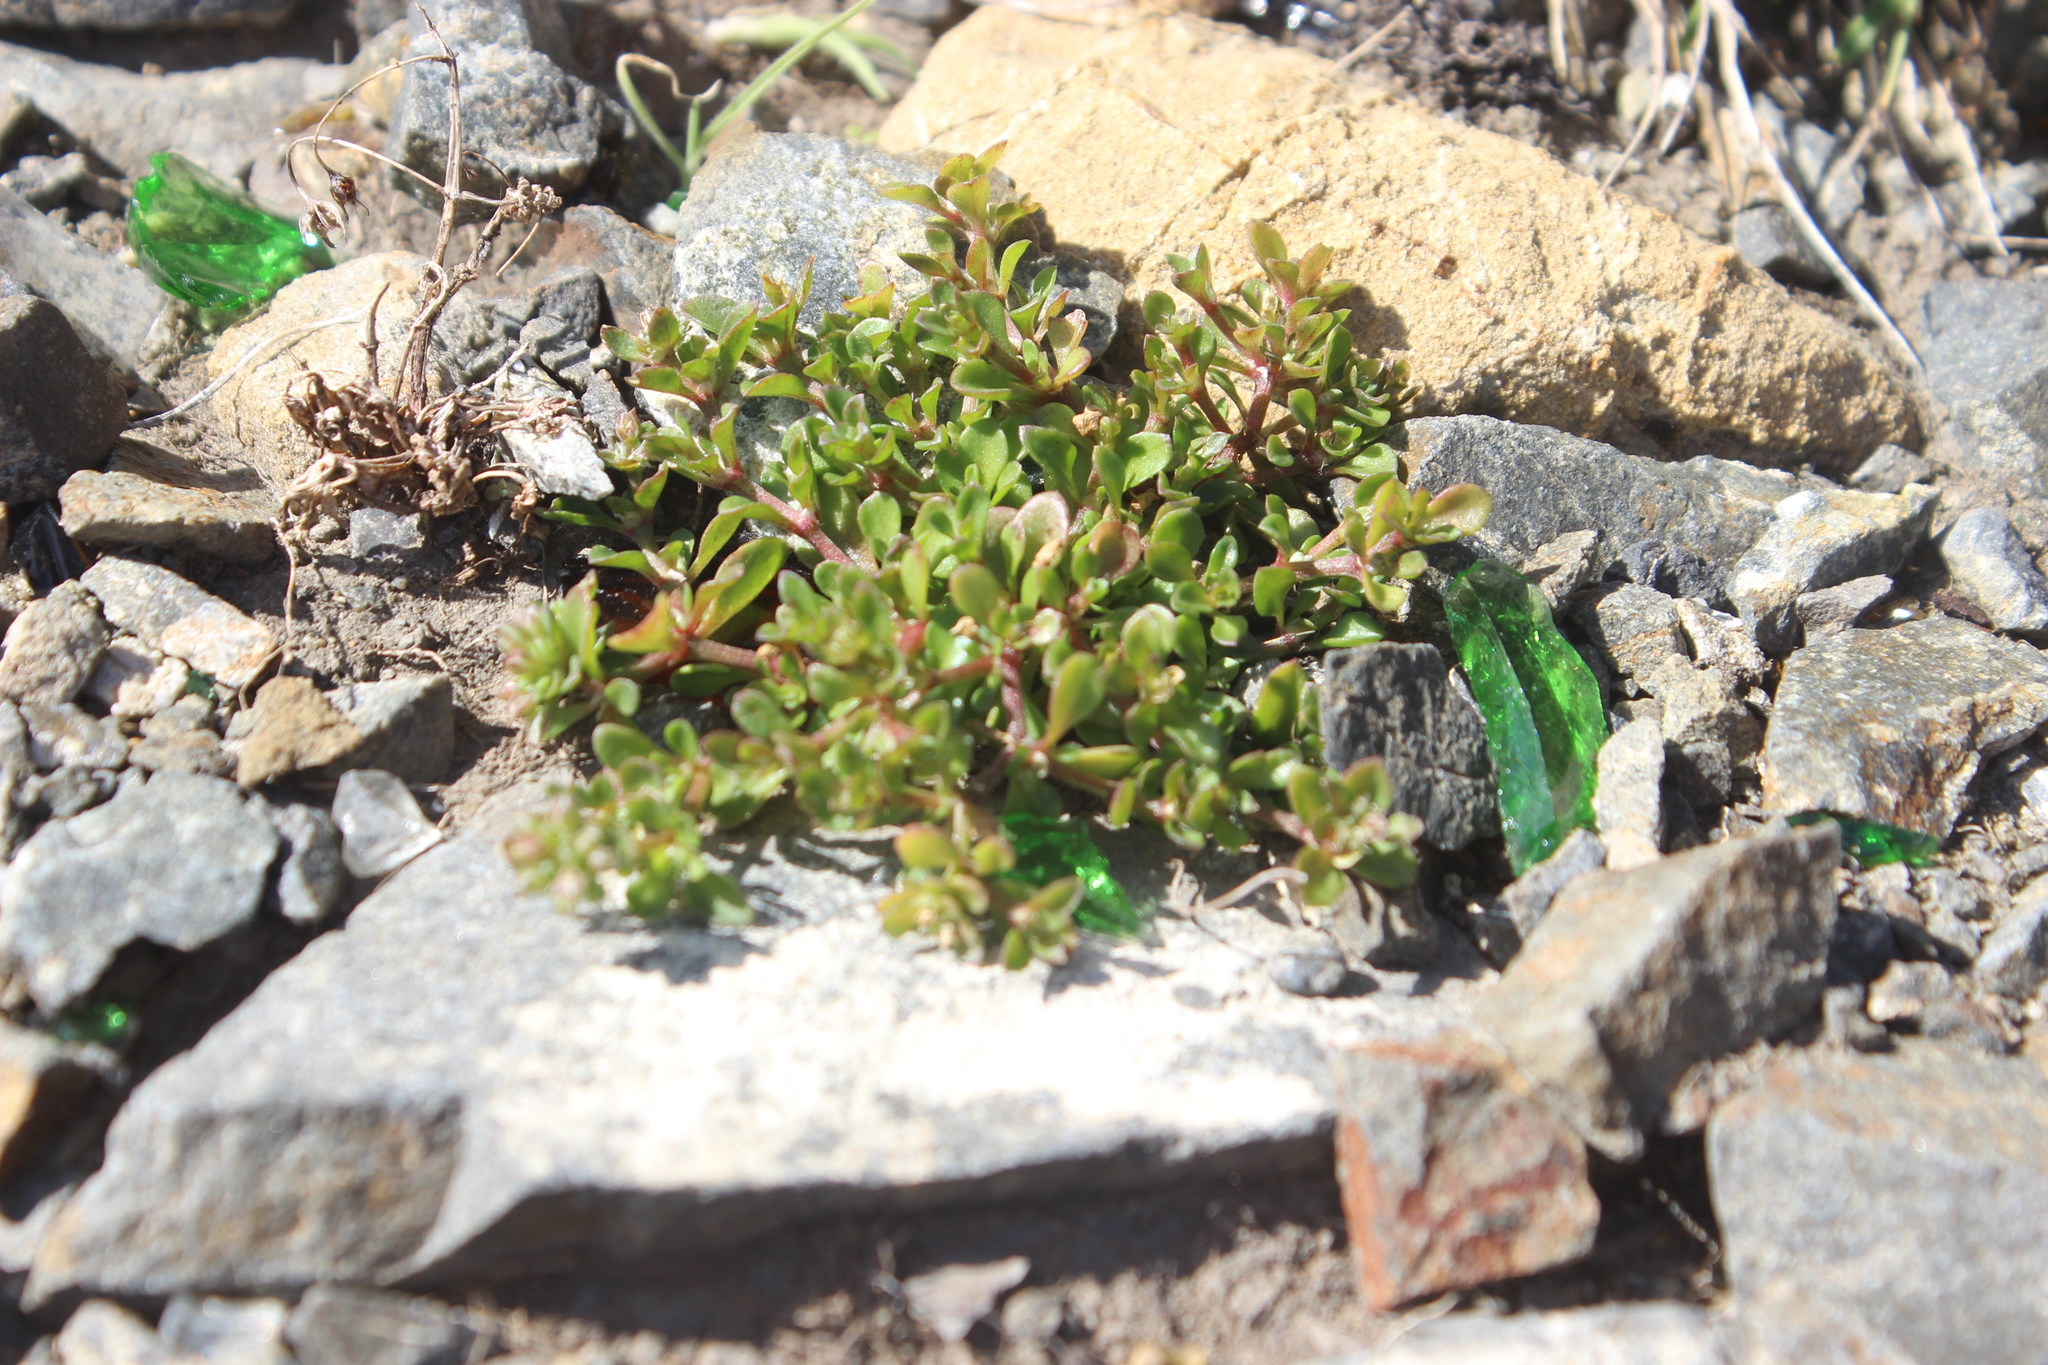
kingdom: Plantae
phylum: Tracheophyta
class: Magnoliopsida
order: Caryophyllales
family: Caryophyllaceae
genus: Polycarpon
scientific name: Polycarpon tetraphyllum
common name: Four-leaved all-seed
